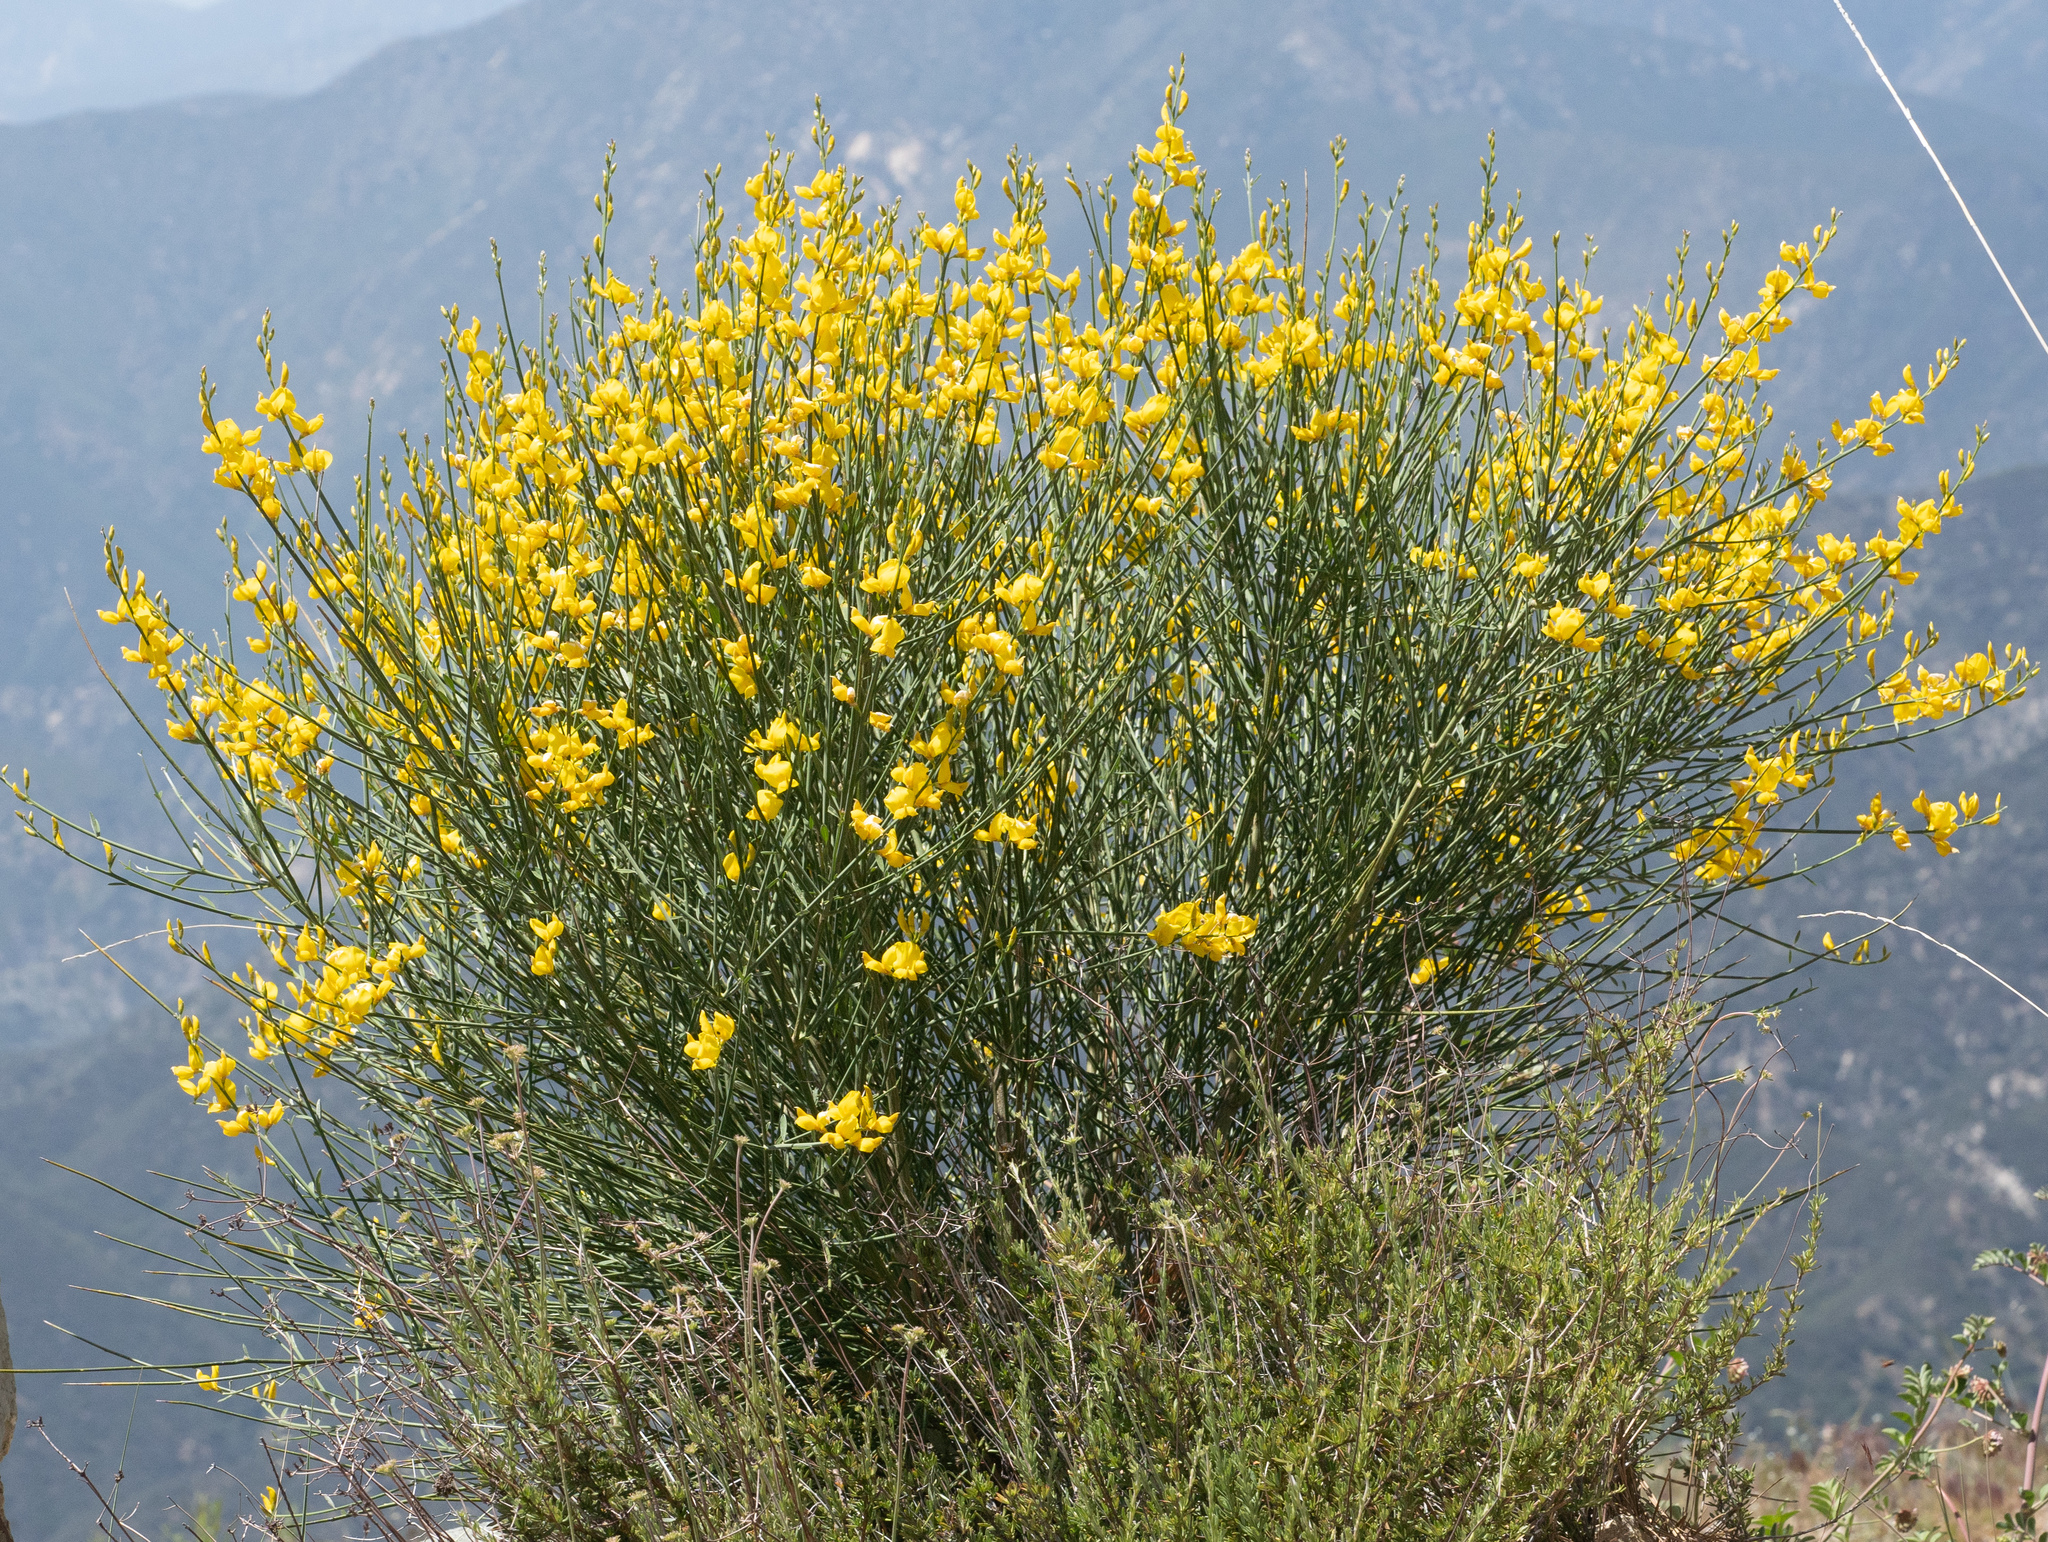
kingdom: Plantae
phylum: Tracheophyta
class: Magnoliopsida
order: Fabales
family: Fabaceae
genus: Spartium
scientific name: Spartium junceum
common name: Spanish broom
